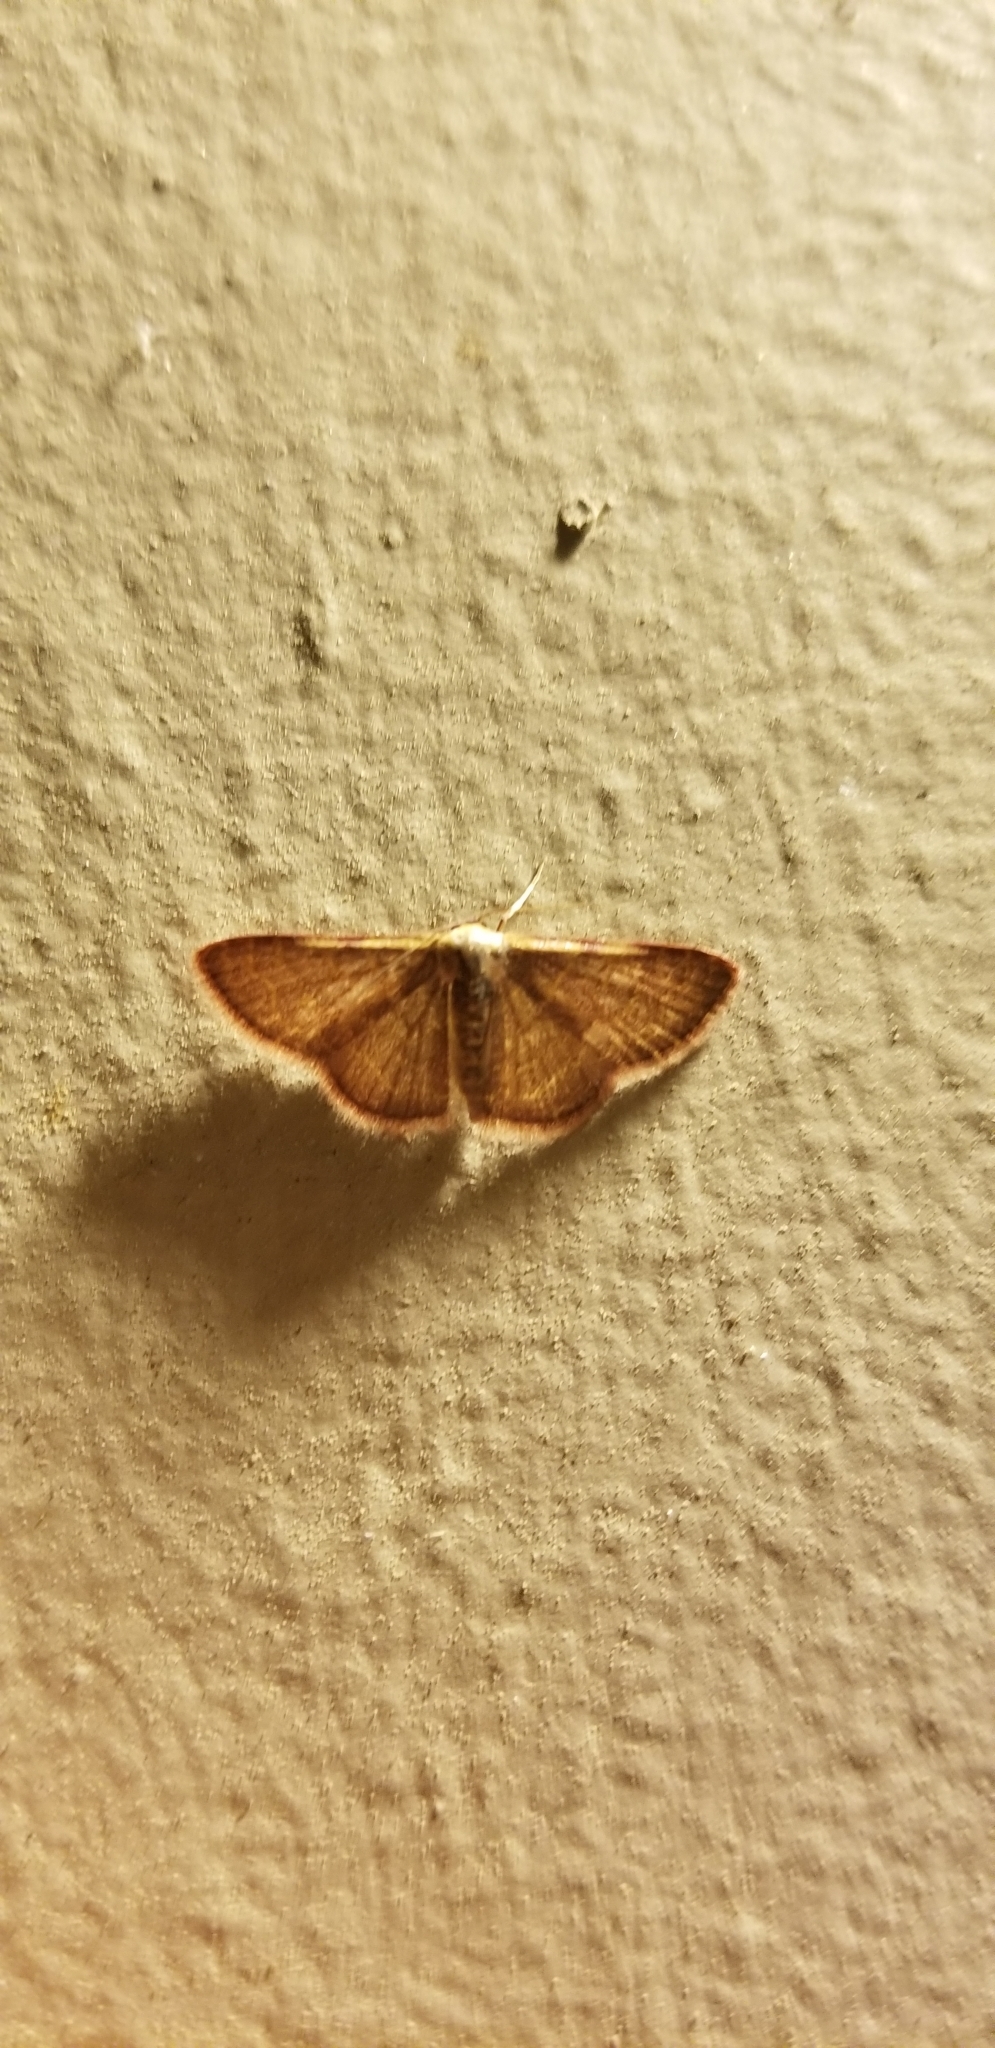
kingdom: Animalia
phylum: Arthropoda
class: Insecta
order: Lepidoptera
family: Geometridae
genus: Pleuroprucha
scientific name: Pleuroprucha insulsaria
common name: Common tan wave
